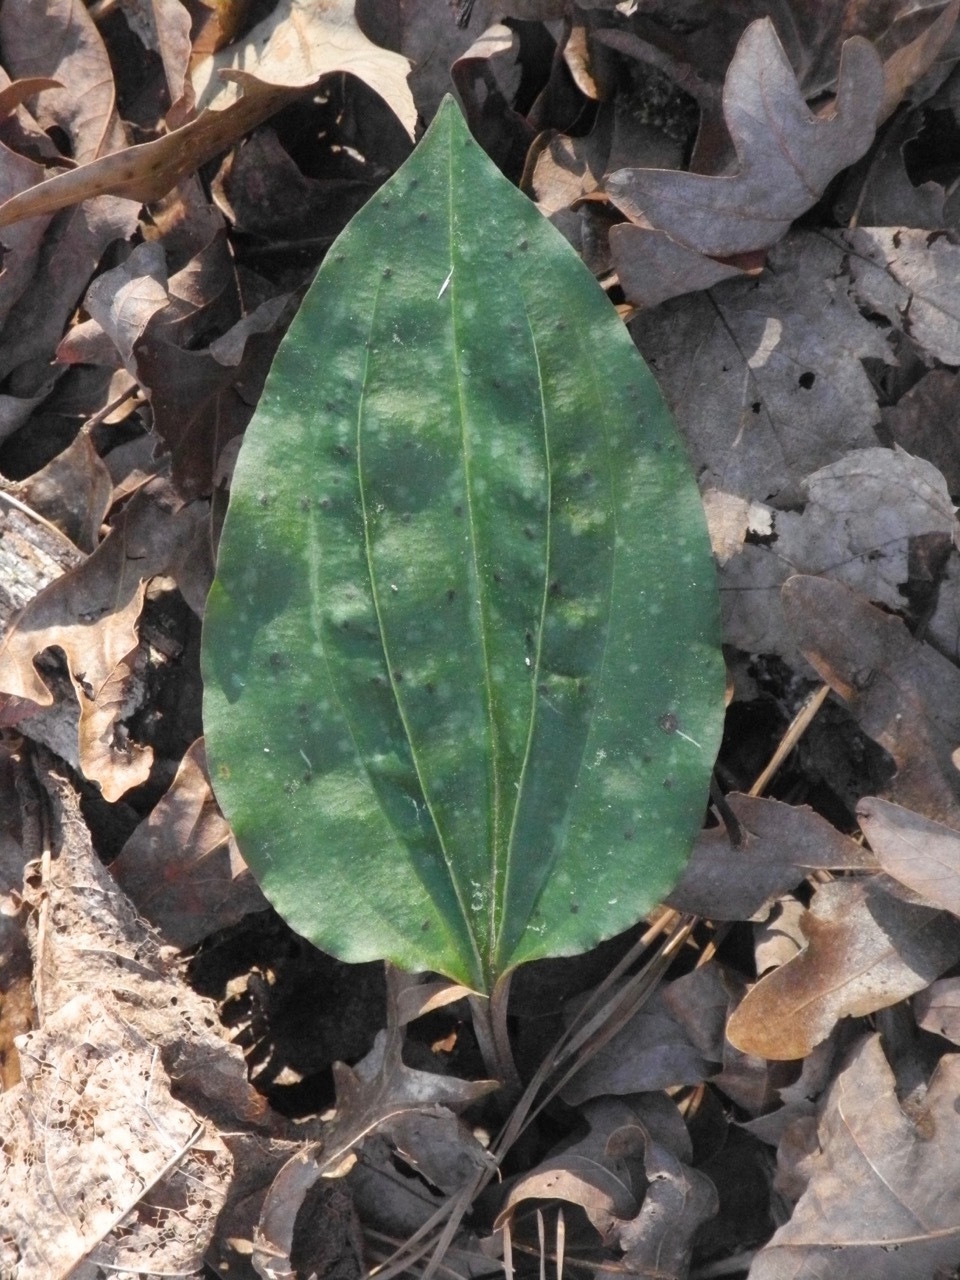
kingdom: Plantae
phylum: Tracheophyta
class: Liliopsida
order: Asparagales
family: Orchidaceae
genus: Tipularia
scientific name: Tipularia discolor
